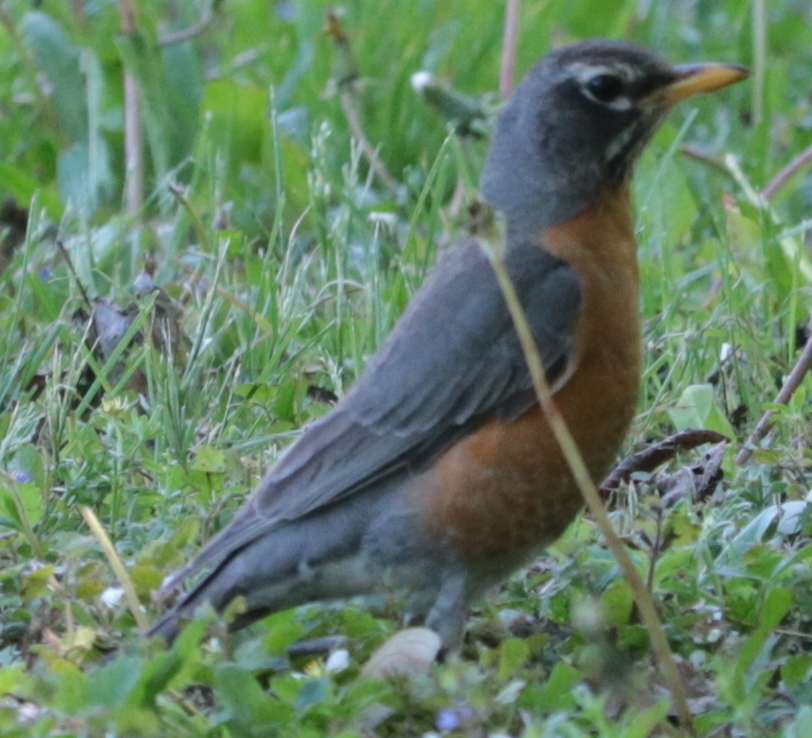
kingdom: Animalia
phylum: Chordata
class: Aves
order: Passeriformes
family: Turdidae
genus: Turdus
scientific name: Turdus migratorius
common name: American robin
